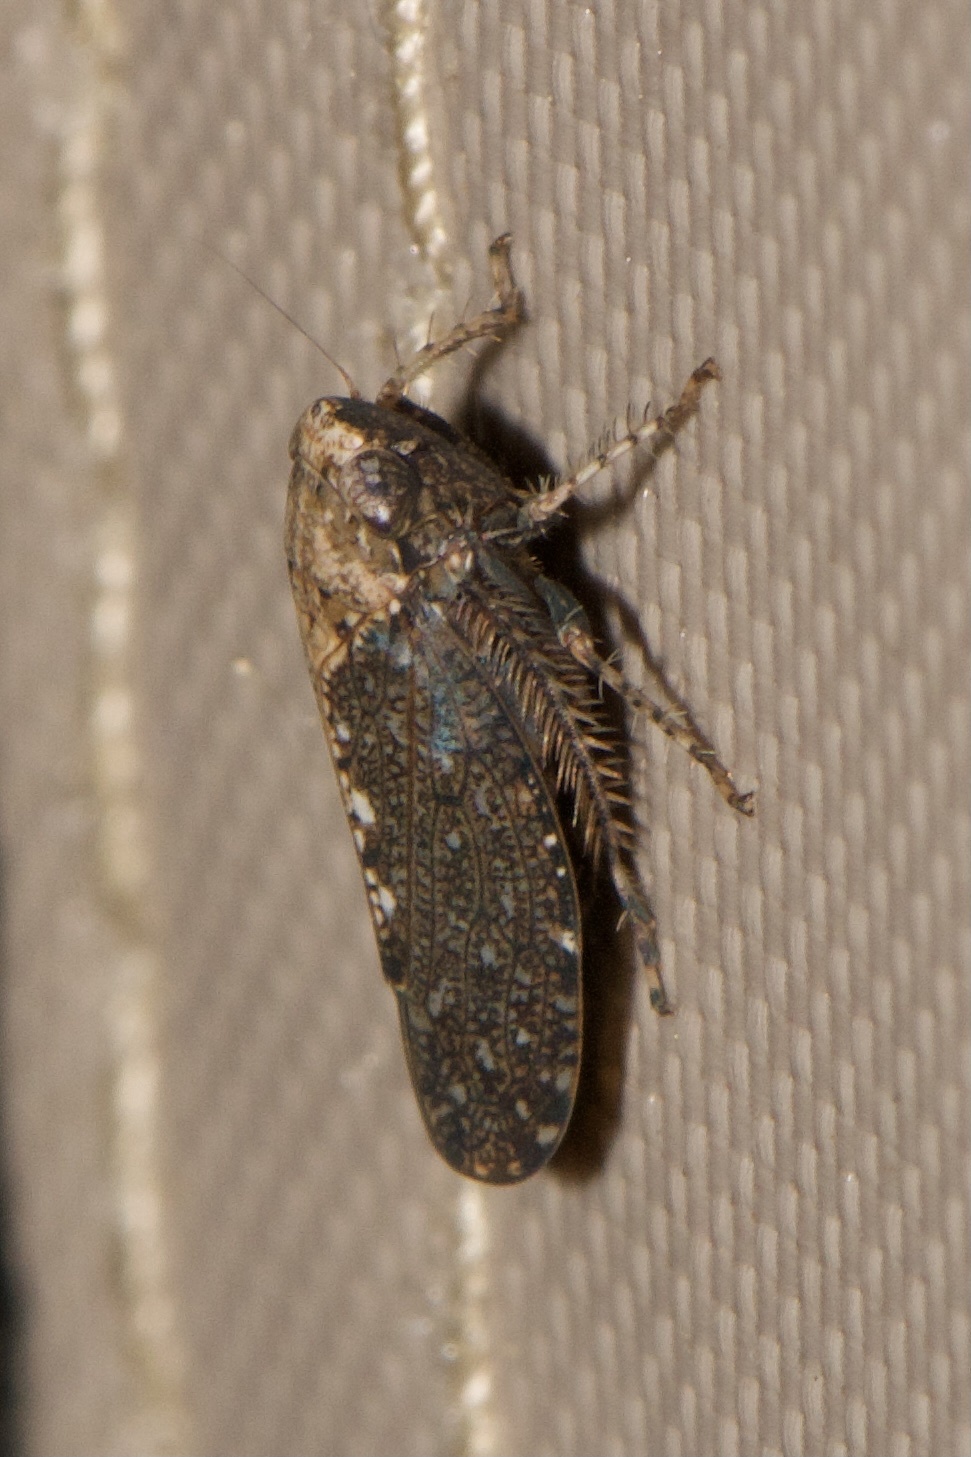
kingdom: Animalia
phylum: Arthropoda
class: Insecta
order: Hemiptera
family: Cicadellidae
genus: Excultanus
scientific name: Excultanus excultus
